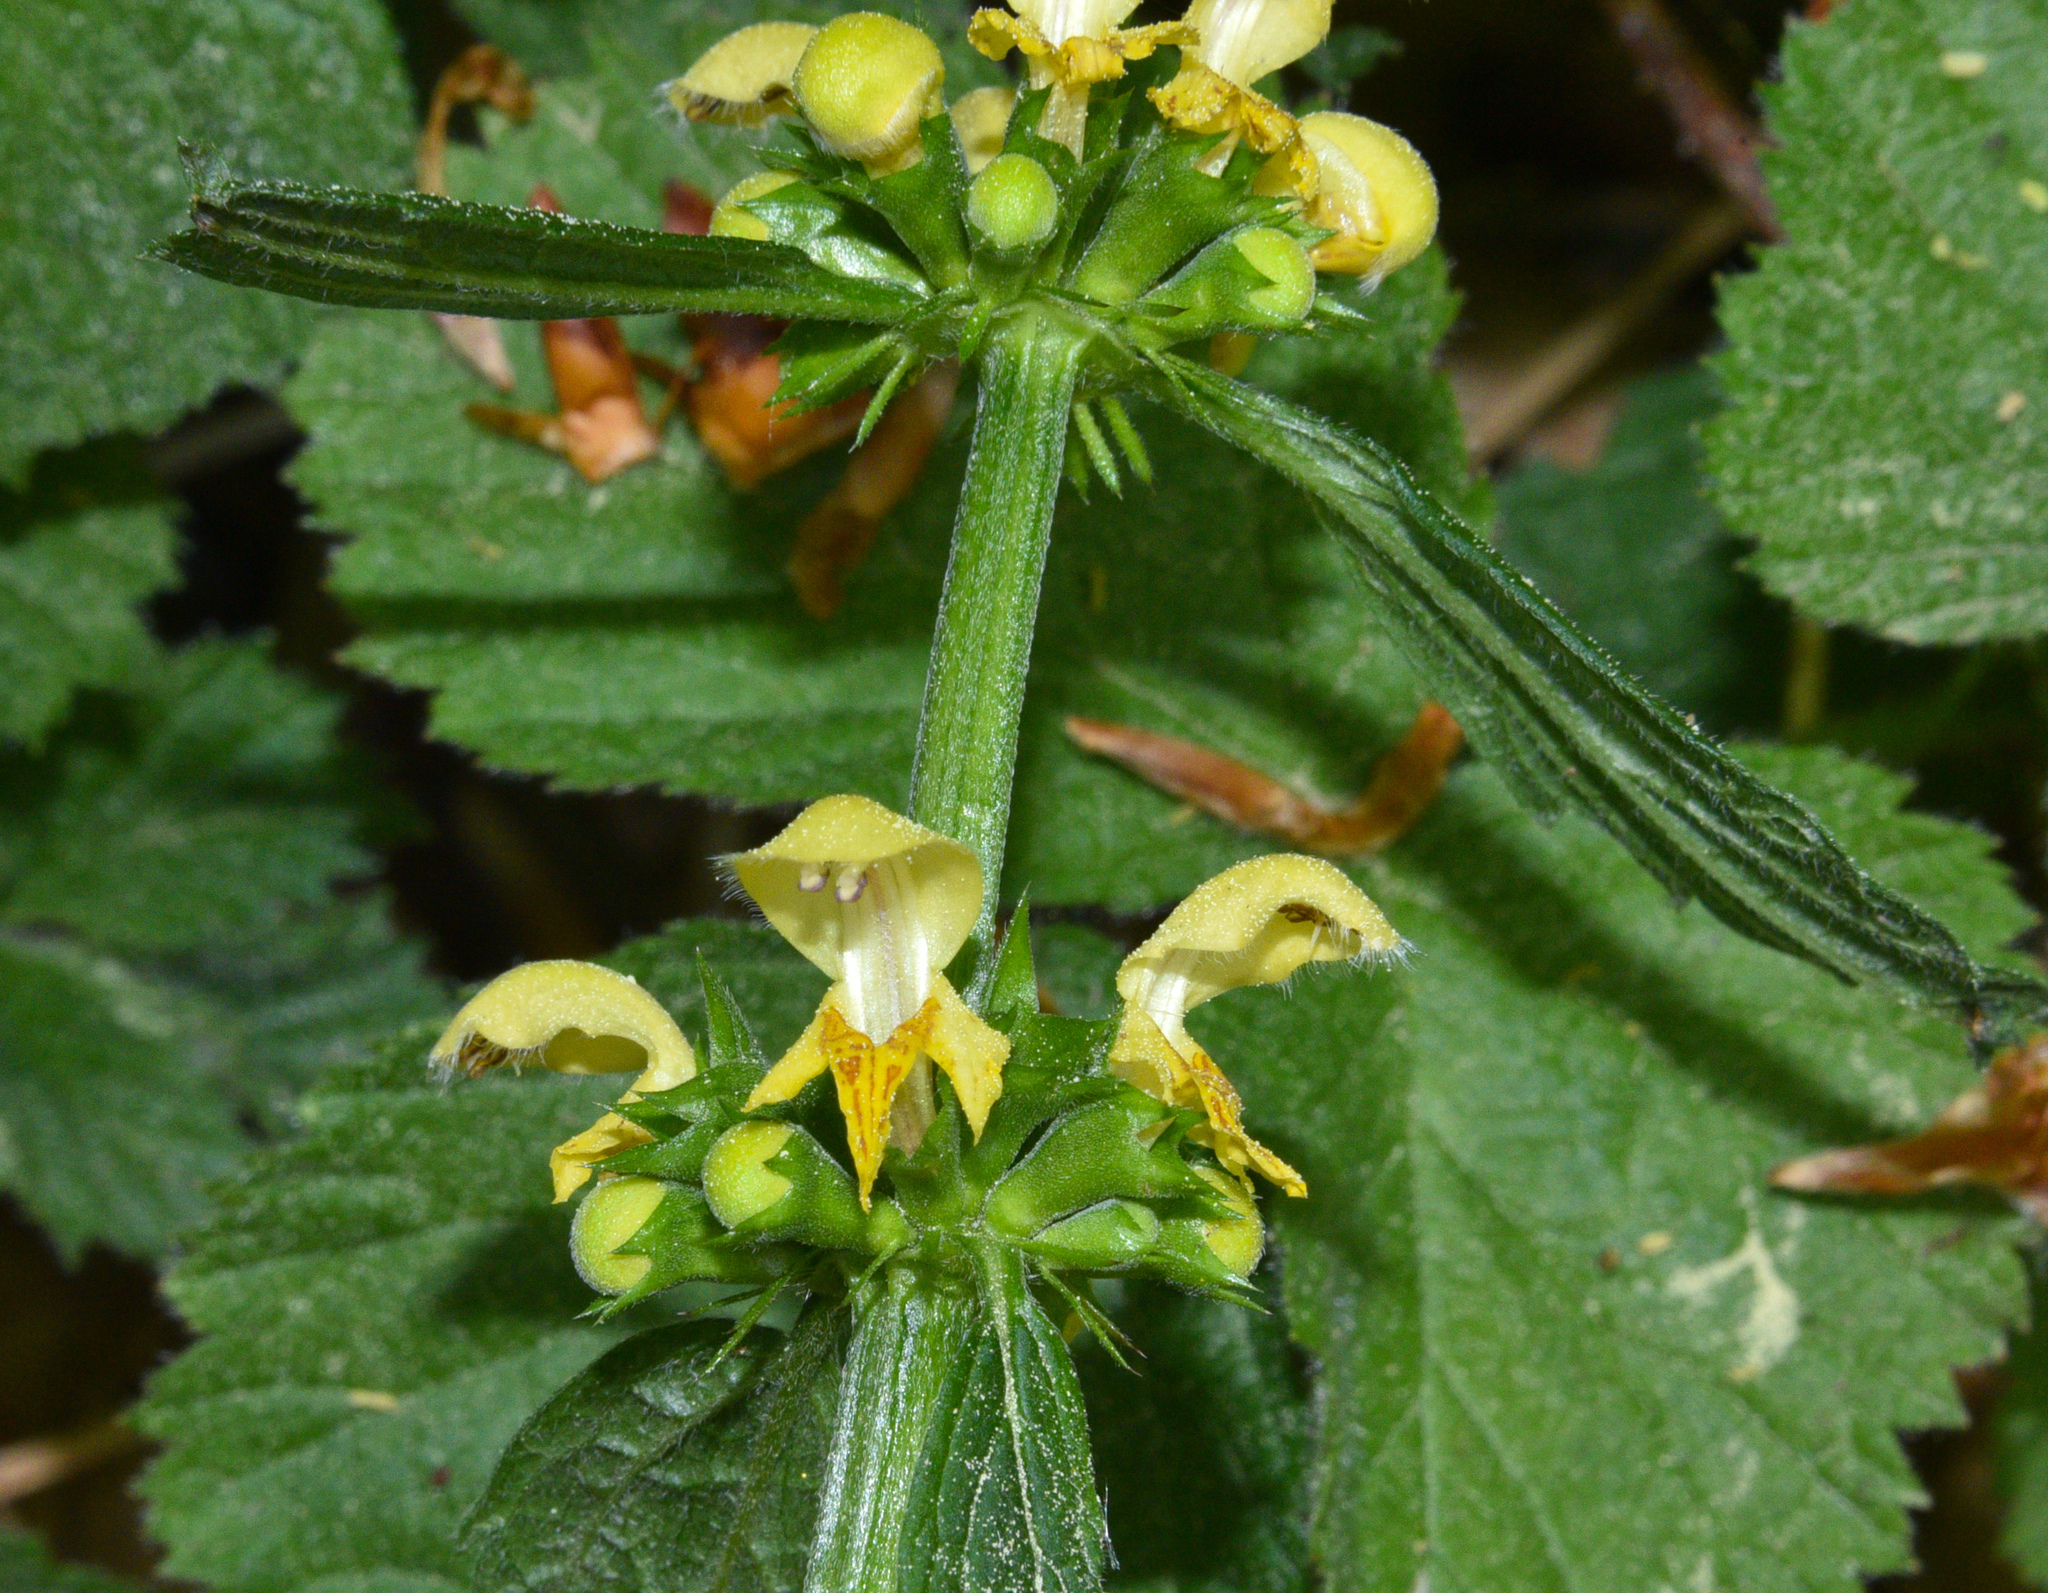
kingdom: Plantae
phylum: Tracheophyta
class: Magnoliopsida
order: Lamiales
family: Lamiaceae
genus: Lamium
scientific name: Lamium galeobdolon
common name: Yellow archangel
